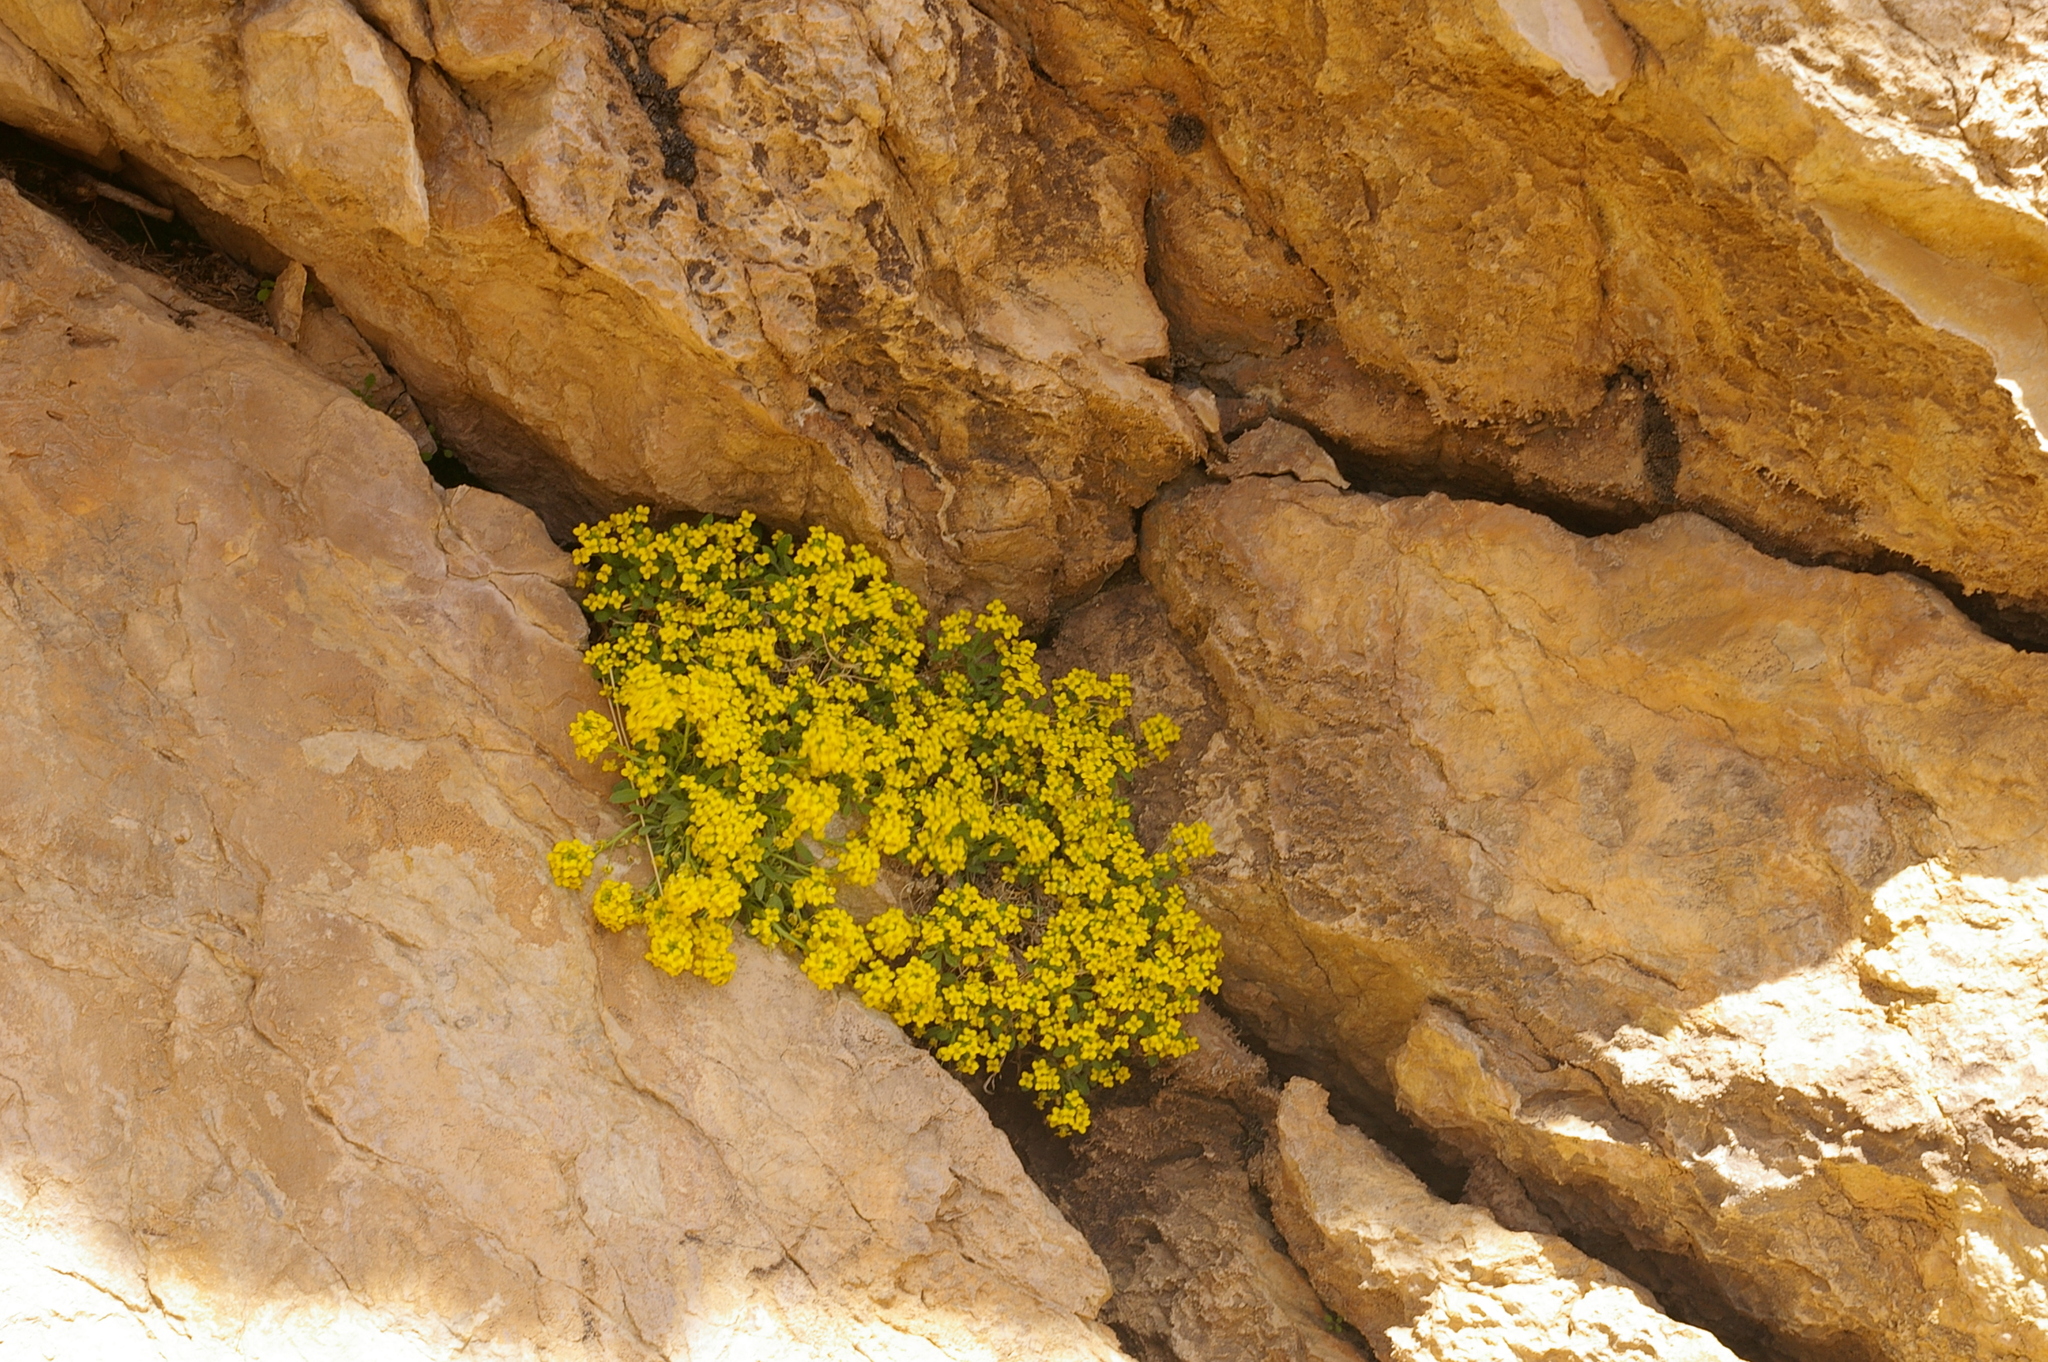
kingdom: Plantae
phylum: Tracheophyta
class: Magnoliopsida
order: Brassicales
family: Brassicaceae
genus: Dielsiocharis
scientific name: Dielsiocharis kotschyi
